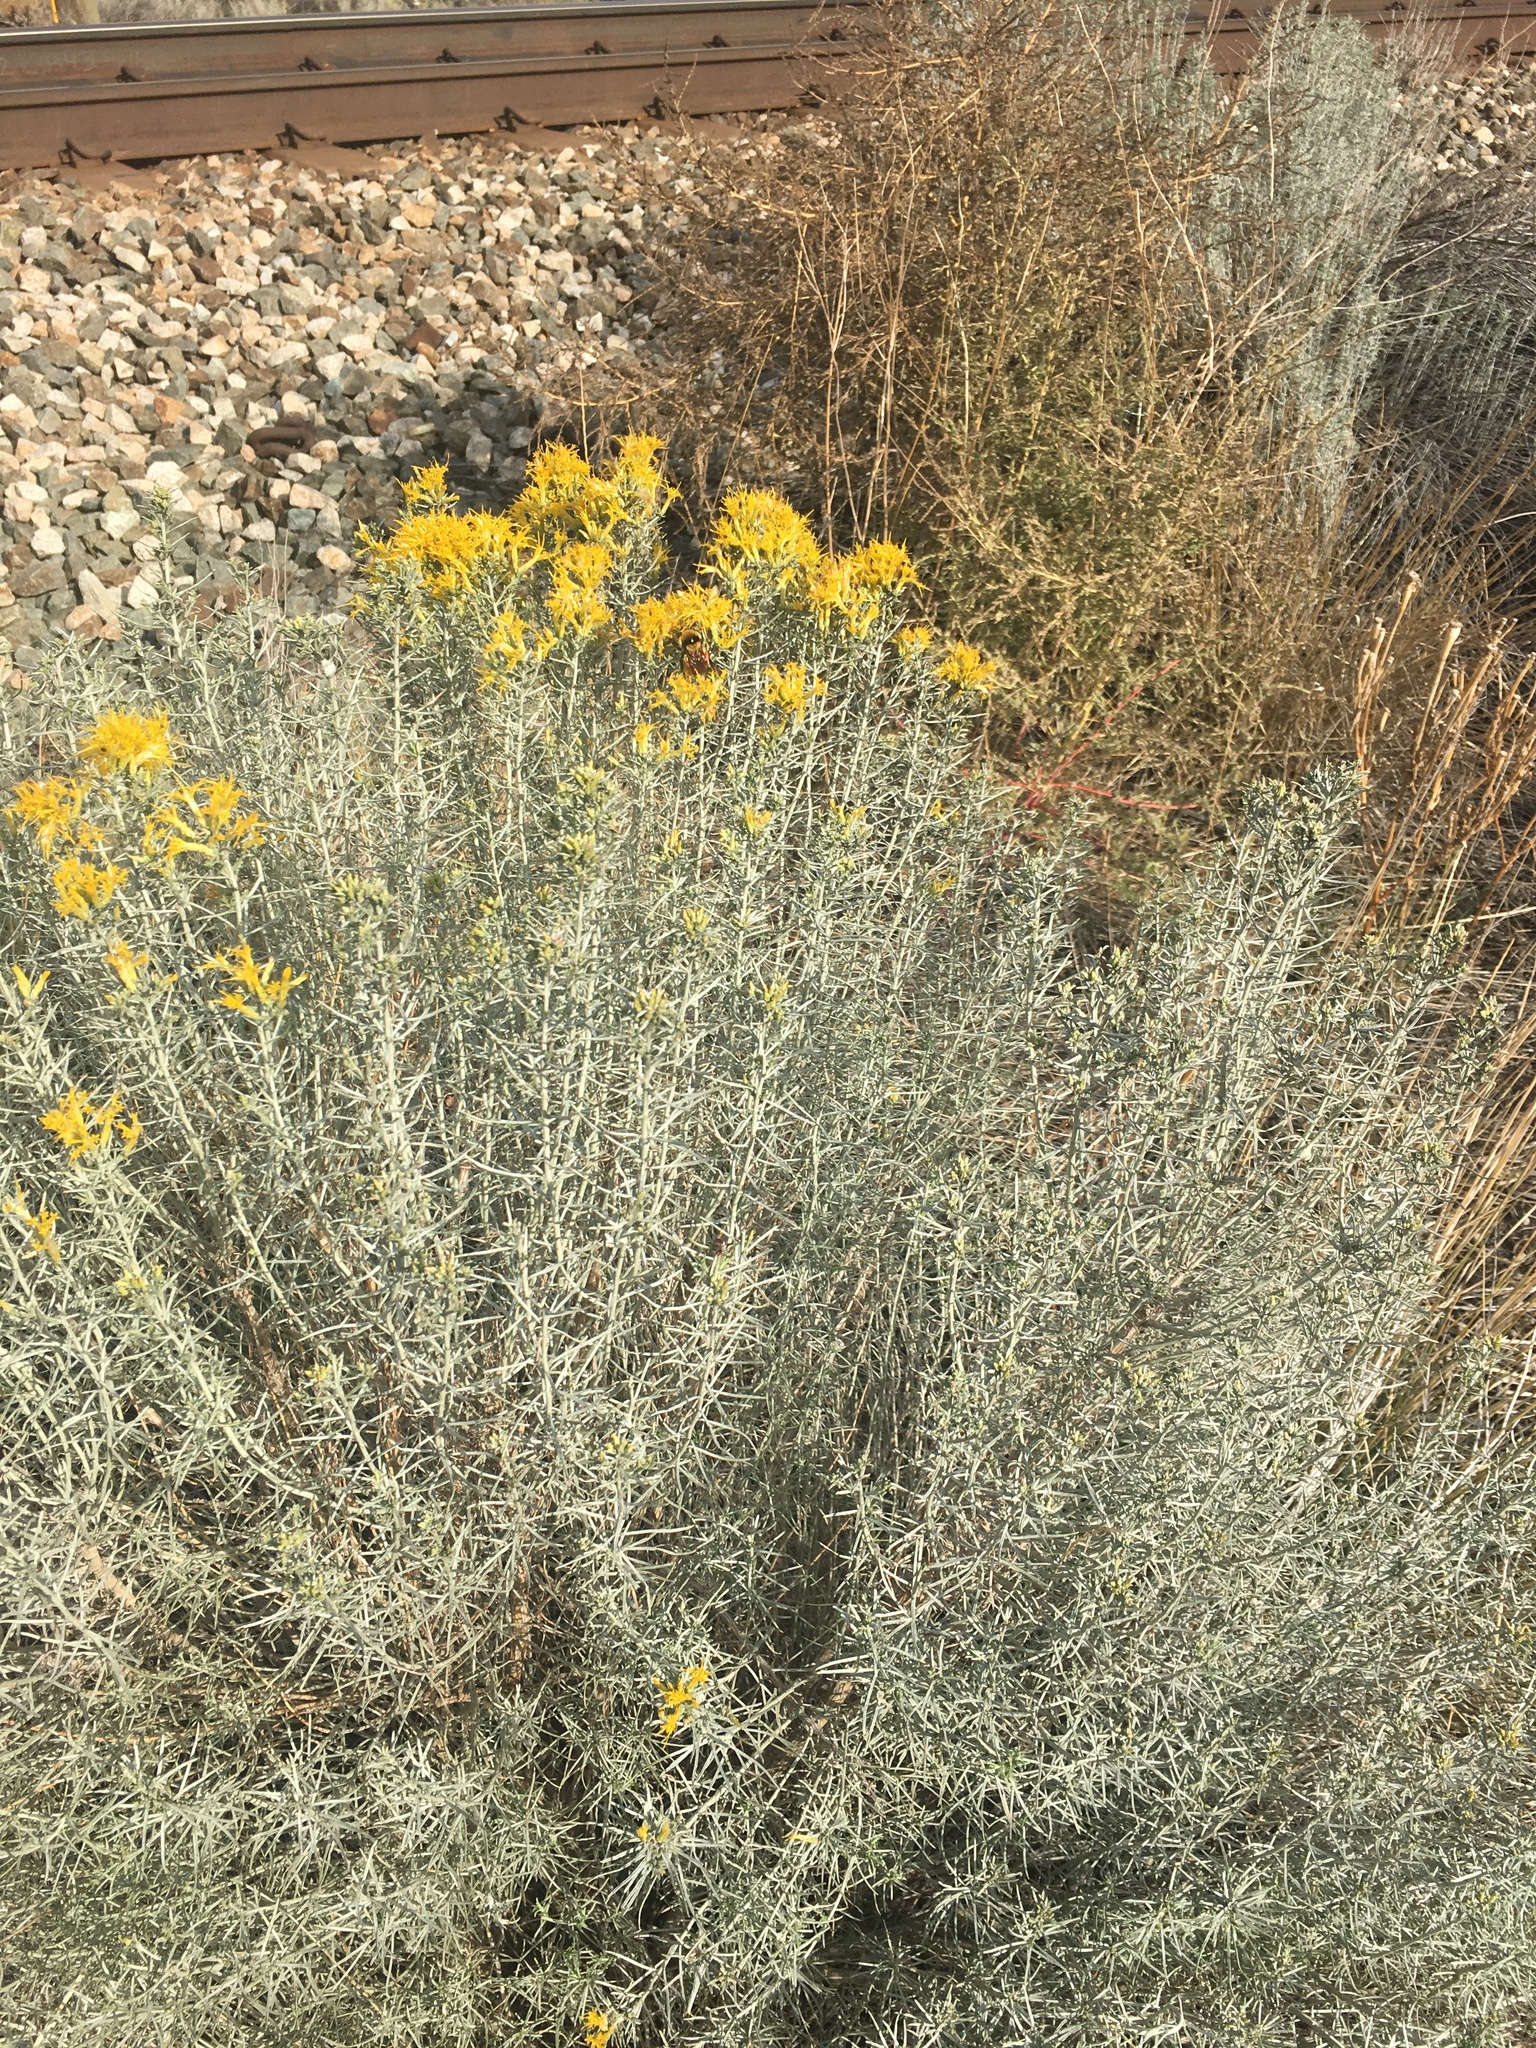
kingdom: Plantae
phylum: Tracheophyta
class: Magnoliopsida
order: Asterales
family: Asteraceae
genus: Ericameria
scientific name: Ericameria nauseosa
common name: Rubber rabbitbrush
